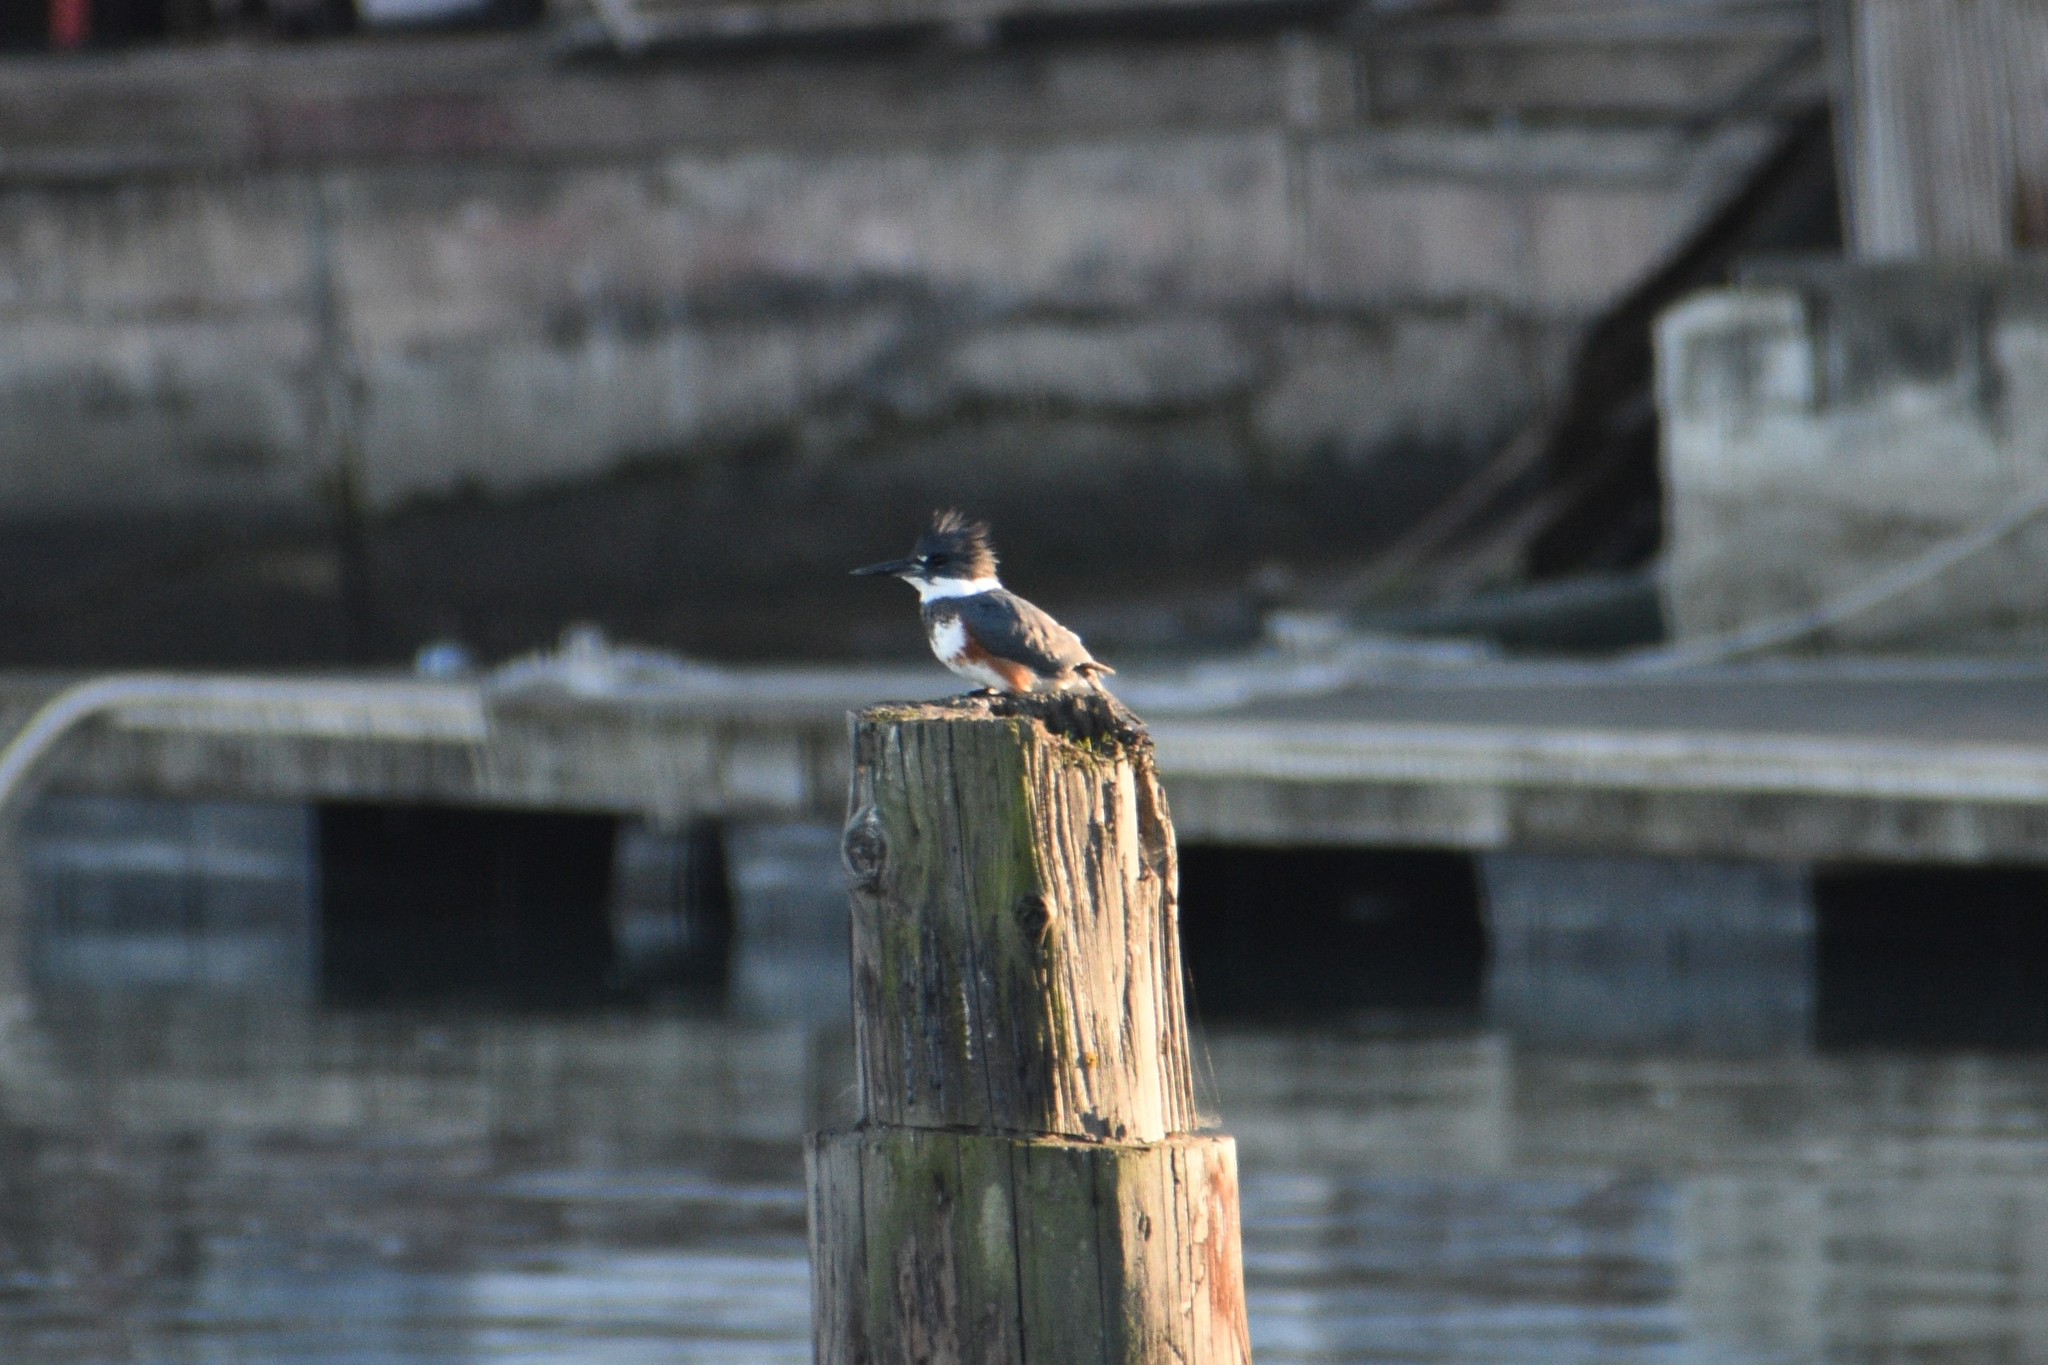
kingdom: Animalia
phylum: Chordata
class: Aves
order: Coraciiformes
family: Alcedinidae
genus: Megaceryle
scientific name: Megaceryle alcyon
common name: Belted kingfisher
